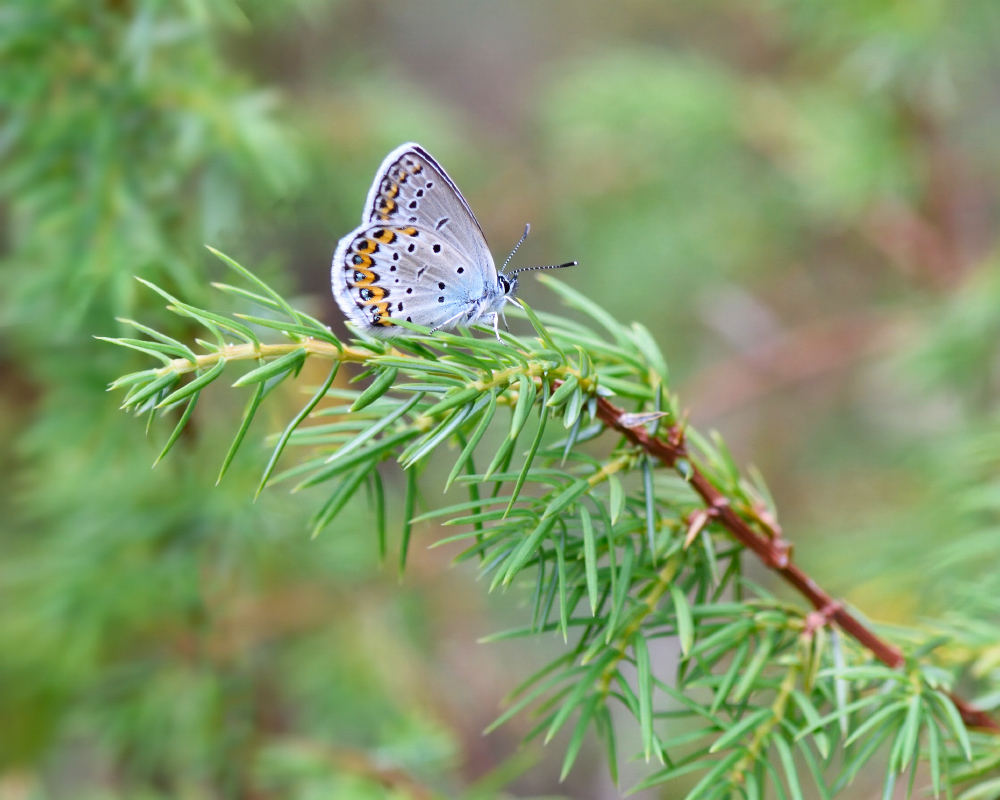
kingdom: Animalia
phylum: Arthropoda
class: Insecta
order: Lepidoptera
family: Lycaenidae
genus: Lycaeides
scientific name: Lycaeides idas
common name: Northern blue
